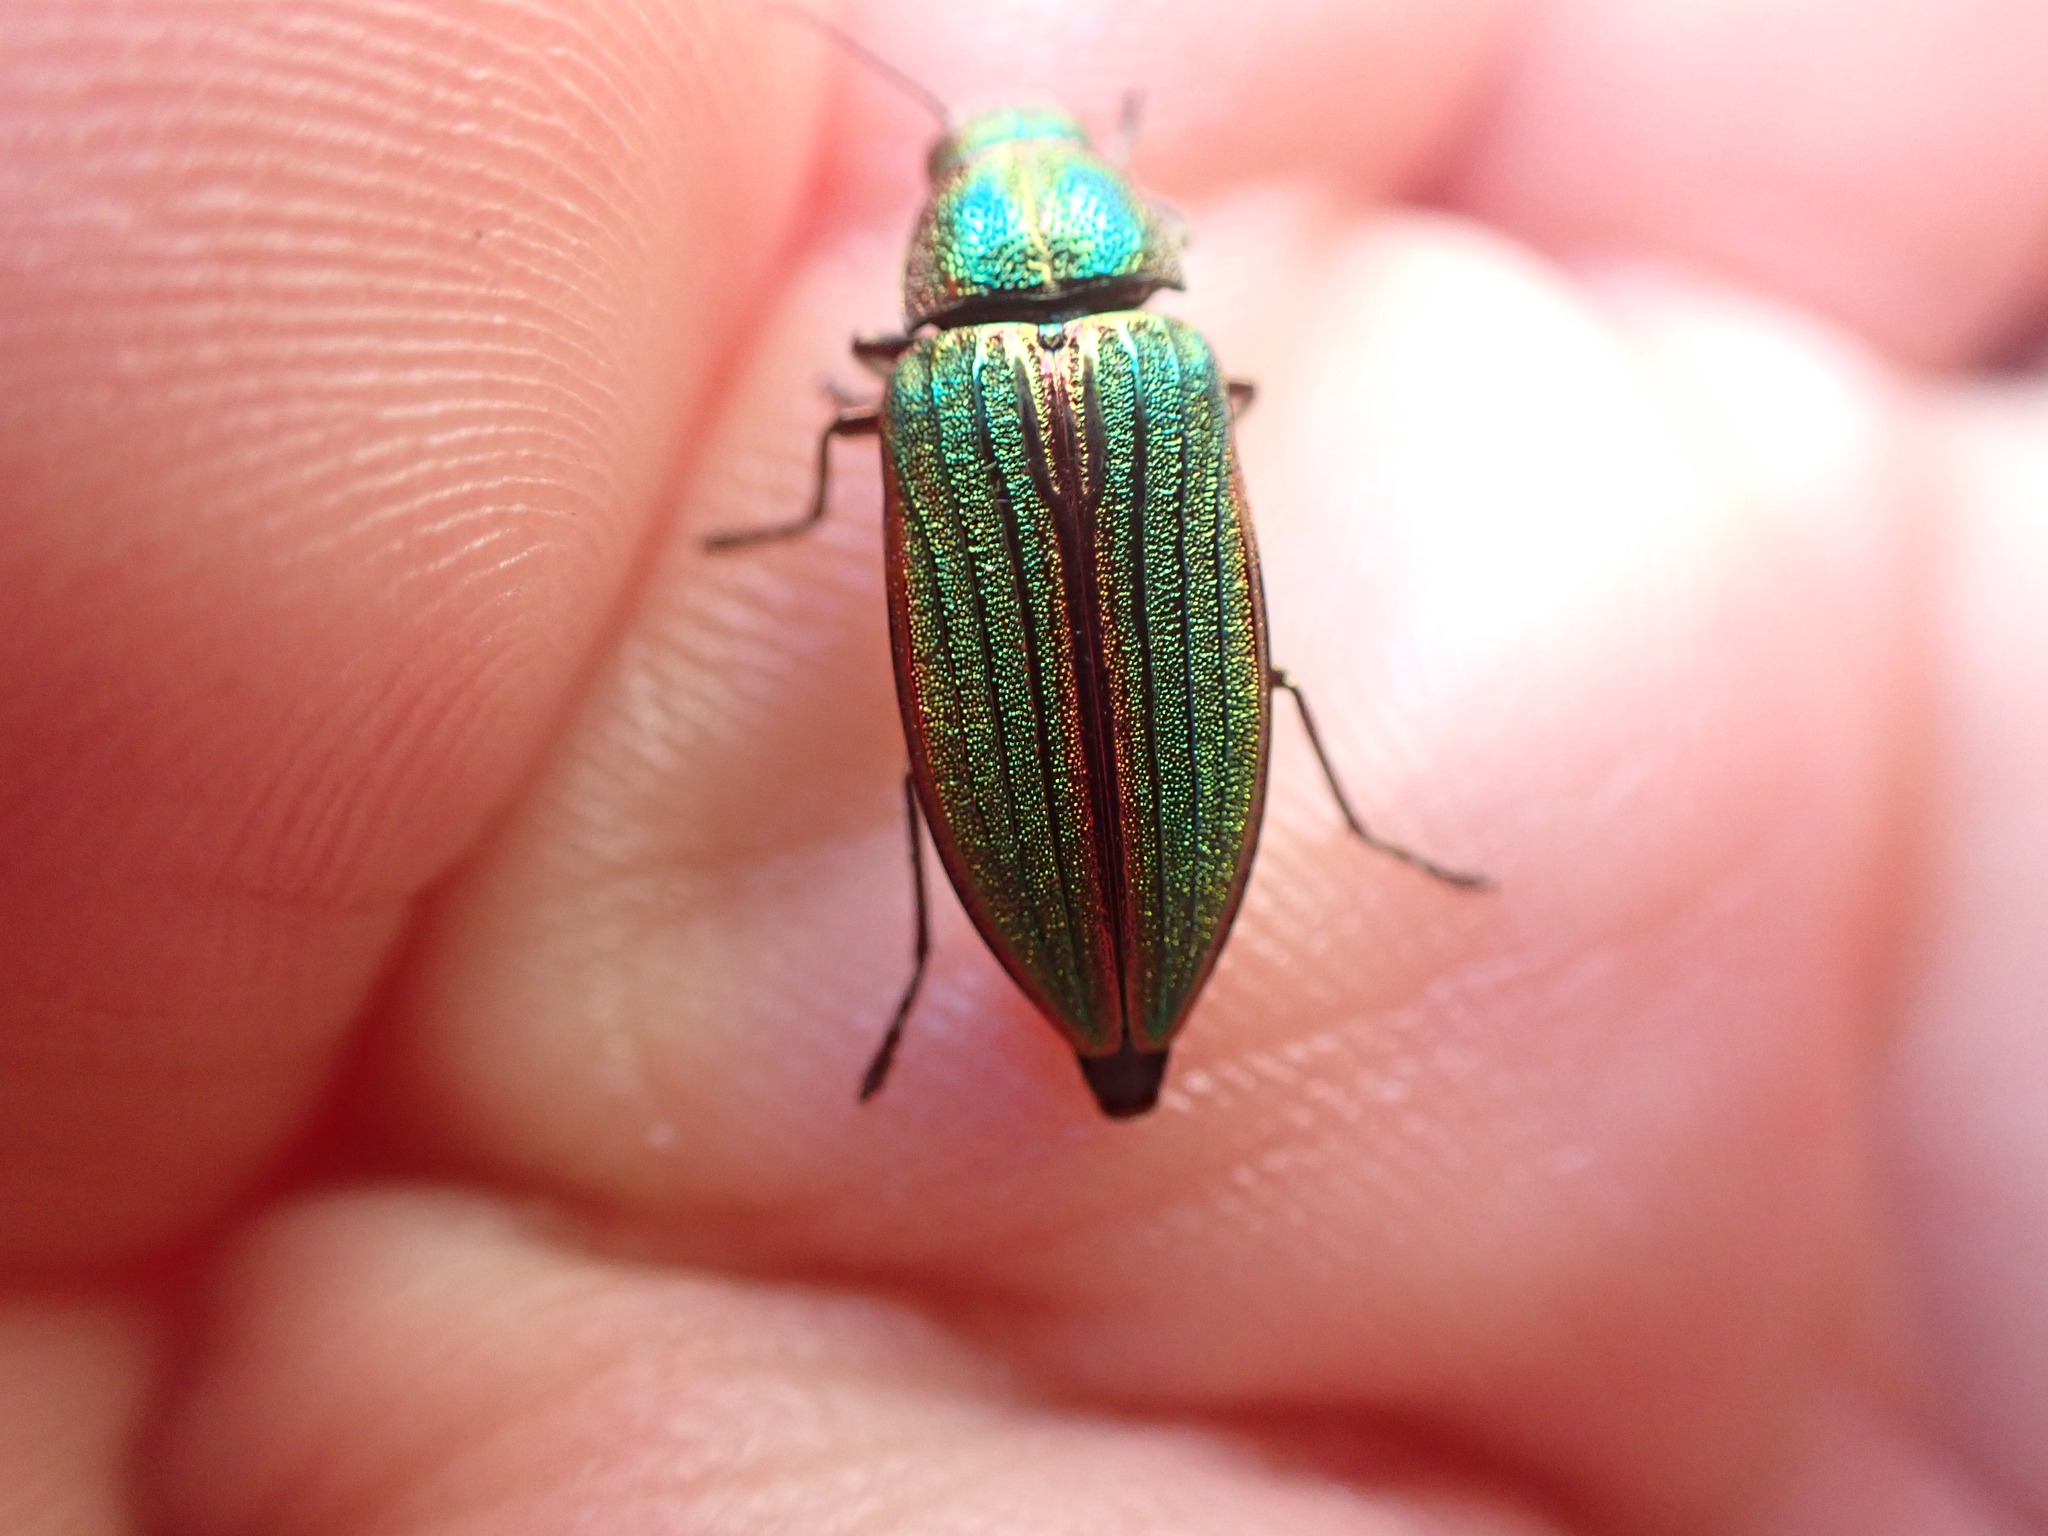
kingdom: Animalia
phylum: Arthropoda
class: Insecta
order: Coleoptera
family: Buprestidae
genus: Buprestis
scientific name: Buprestis aurulenta
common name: Golden buprestid
